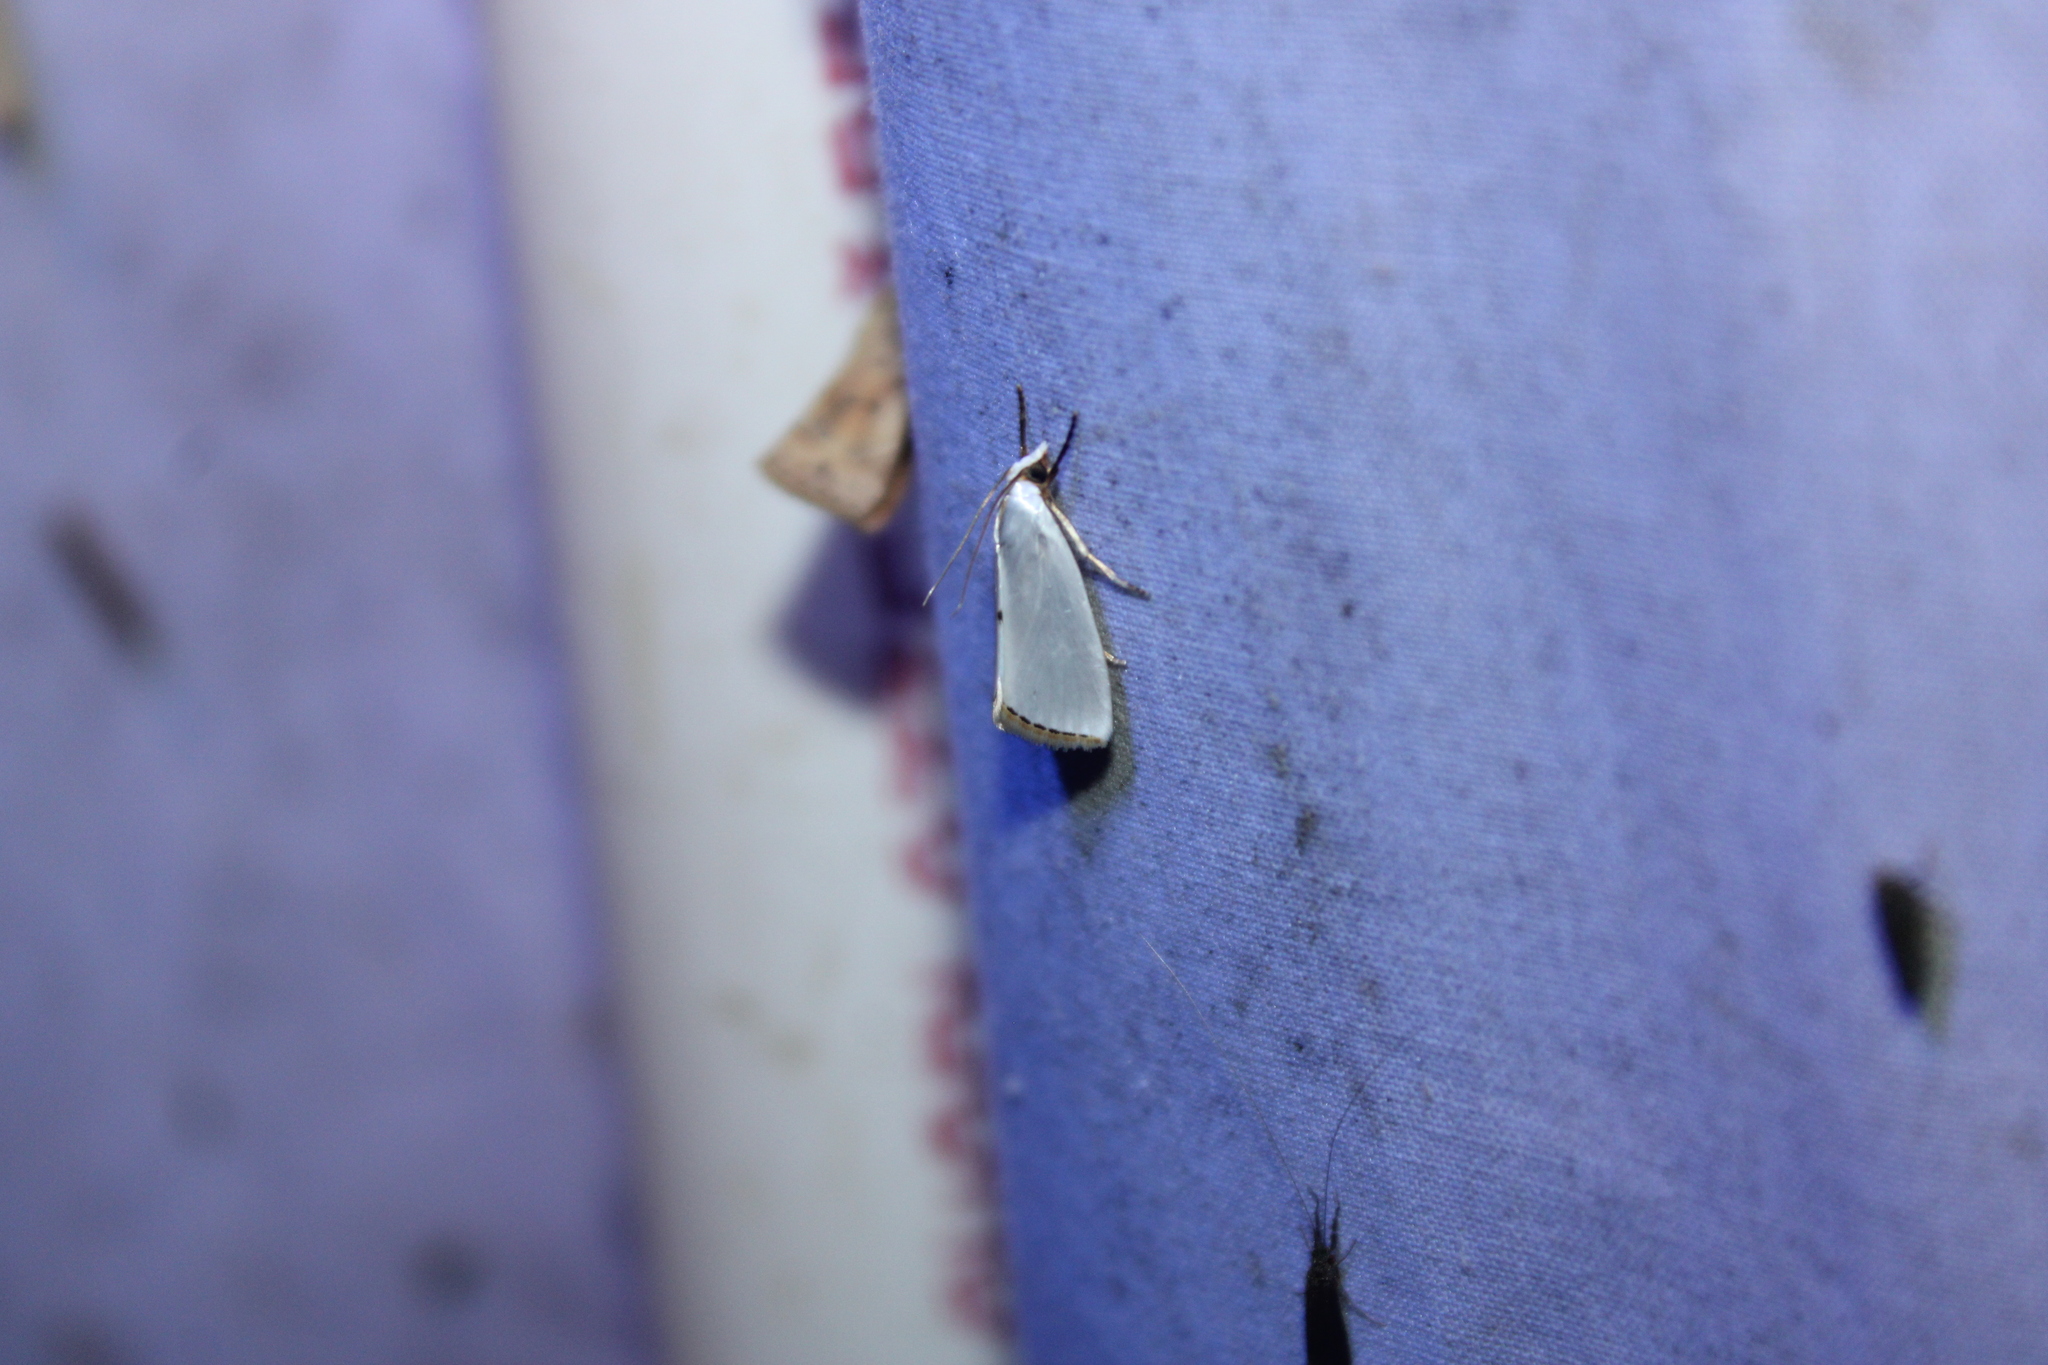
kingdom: Animalia
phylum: Arthropoda
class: Insecta
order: Lepidoptera
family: Crambidae
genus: Argyria
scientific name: Argyria nivalis
